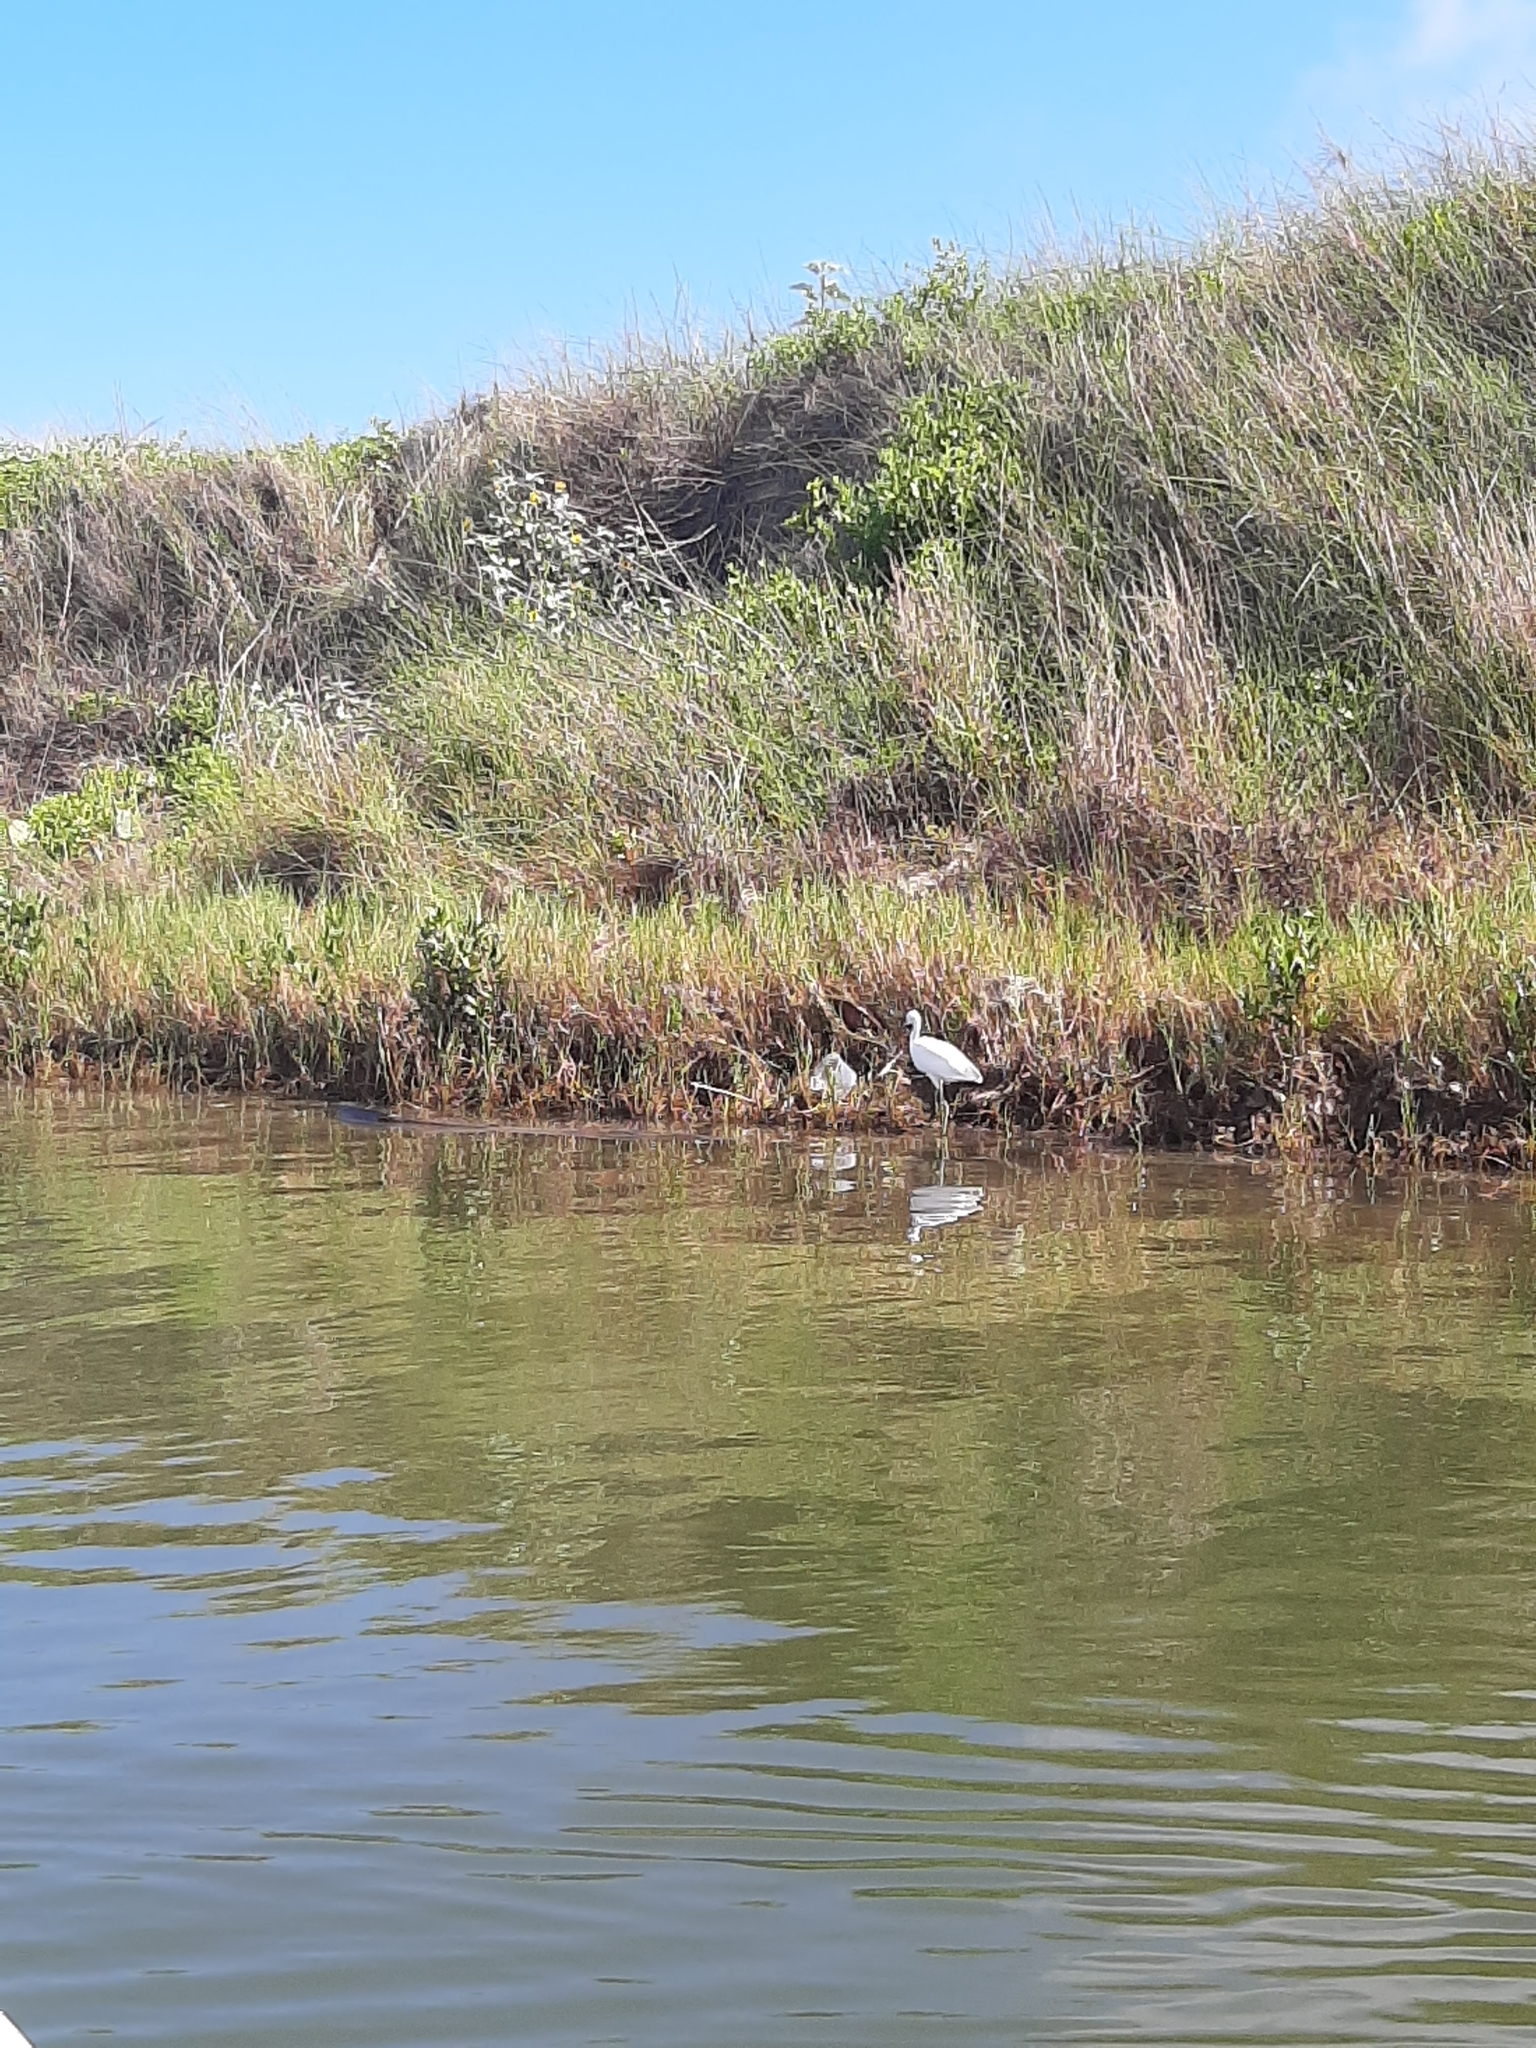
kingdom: Animalia
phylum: Chordata
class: Aves
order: Pelecaniformes
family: Ardeidae
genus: Egretta
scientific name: Egretta thula
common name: Snowy egret
